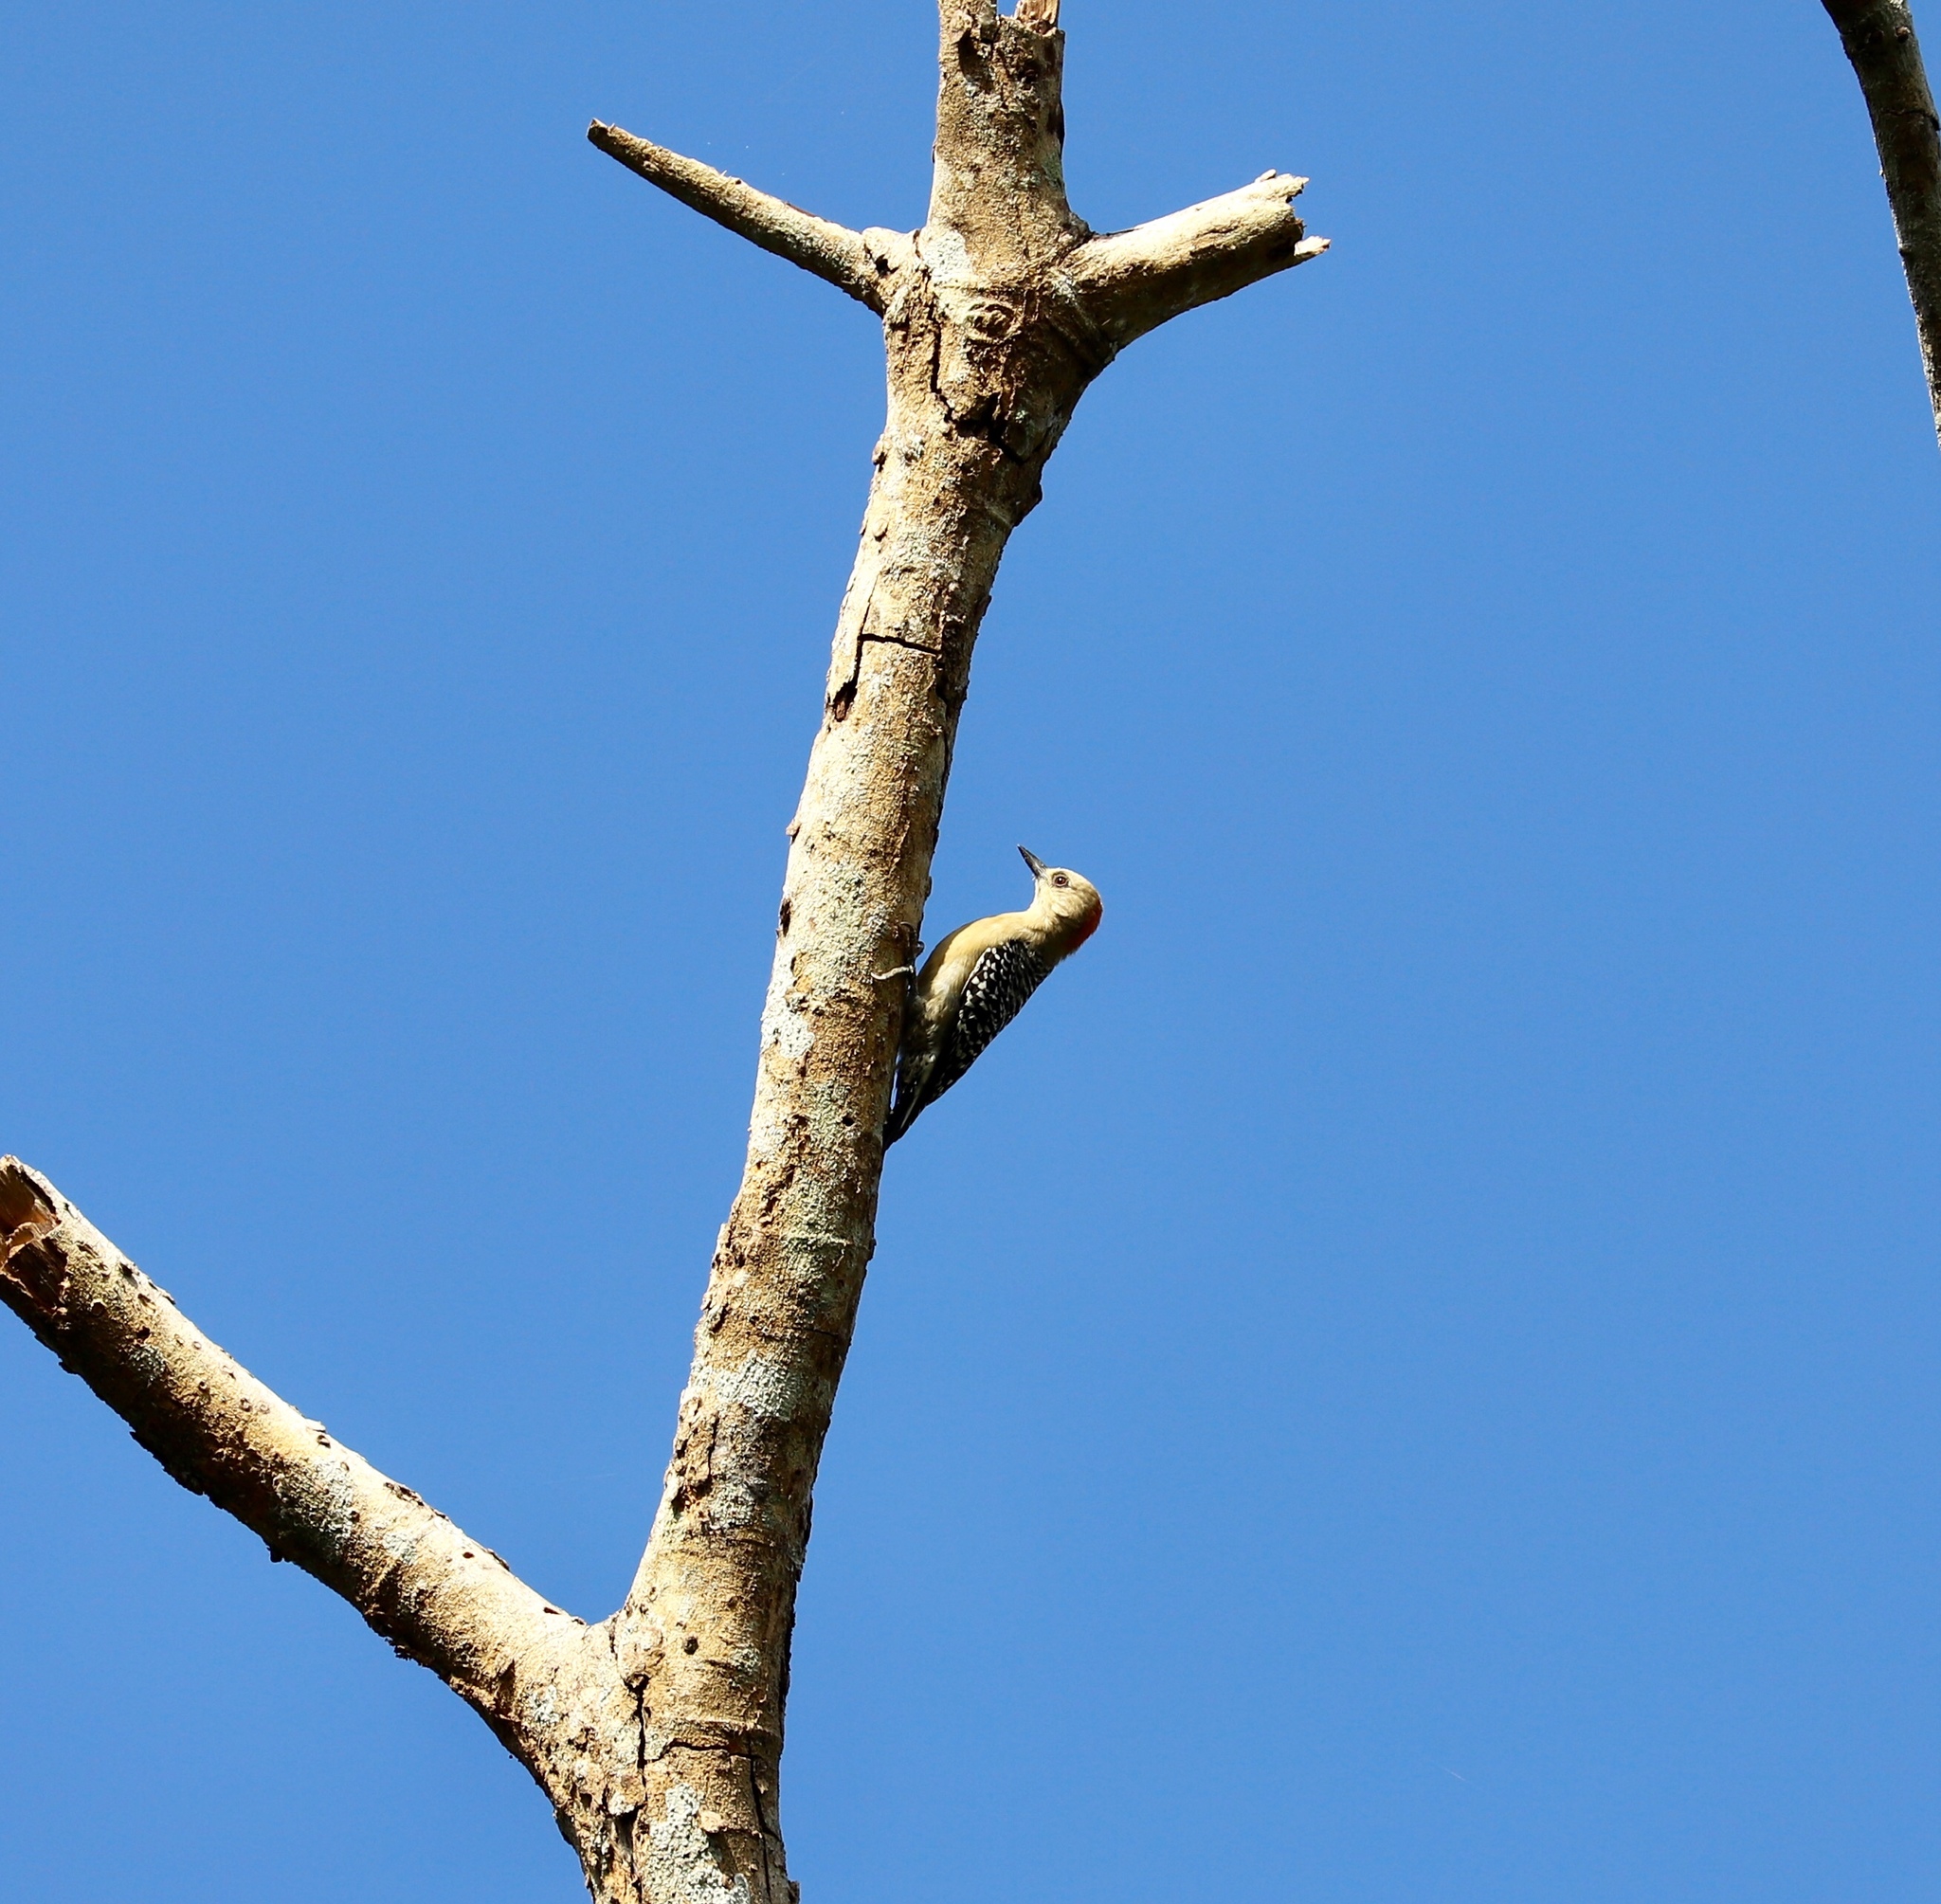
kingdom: Animalia
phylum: Chordata
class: Aves
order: Piciformes
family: Picidae
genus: Melanerpes
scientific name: Melanerpes rubricapillus
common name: Red-crowned woodpecker
